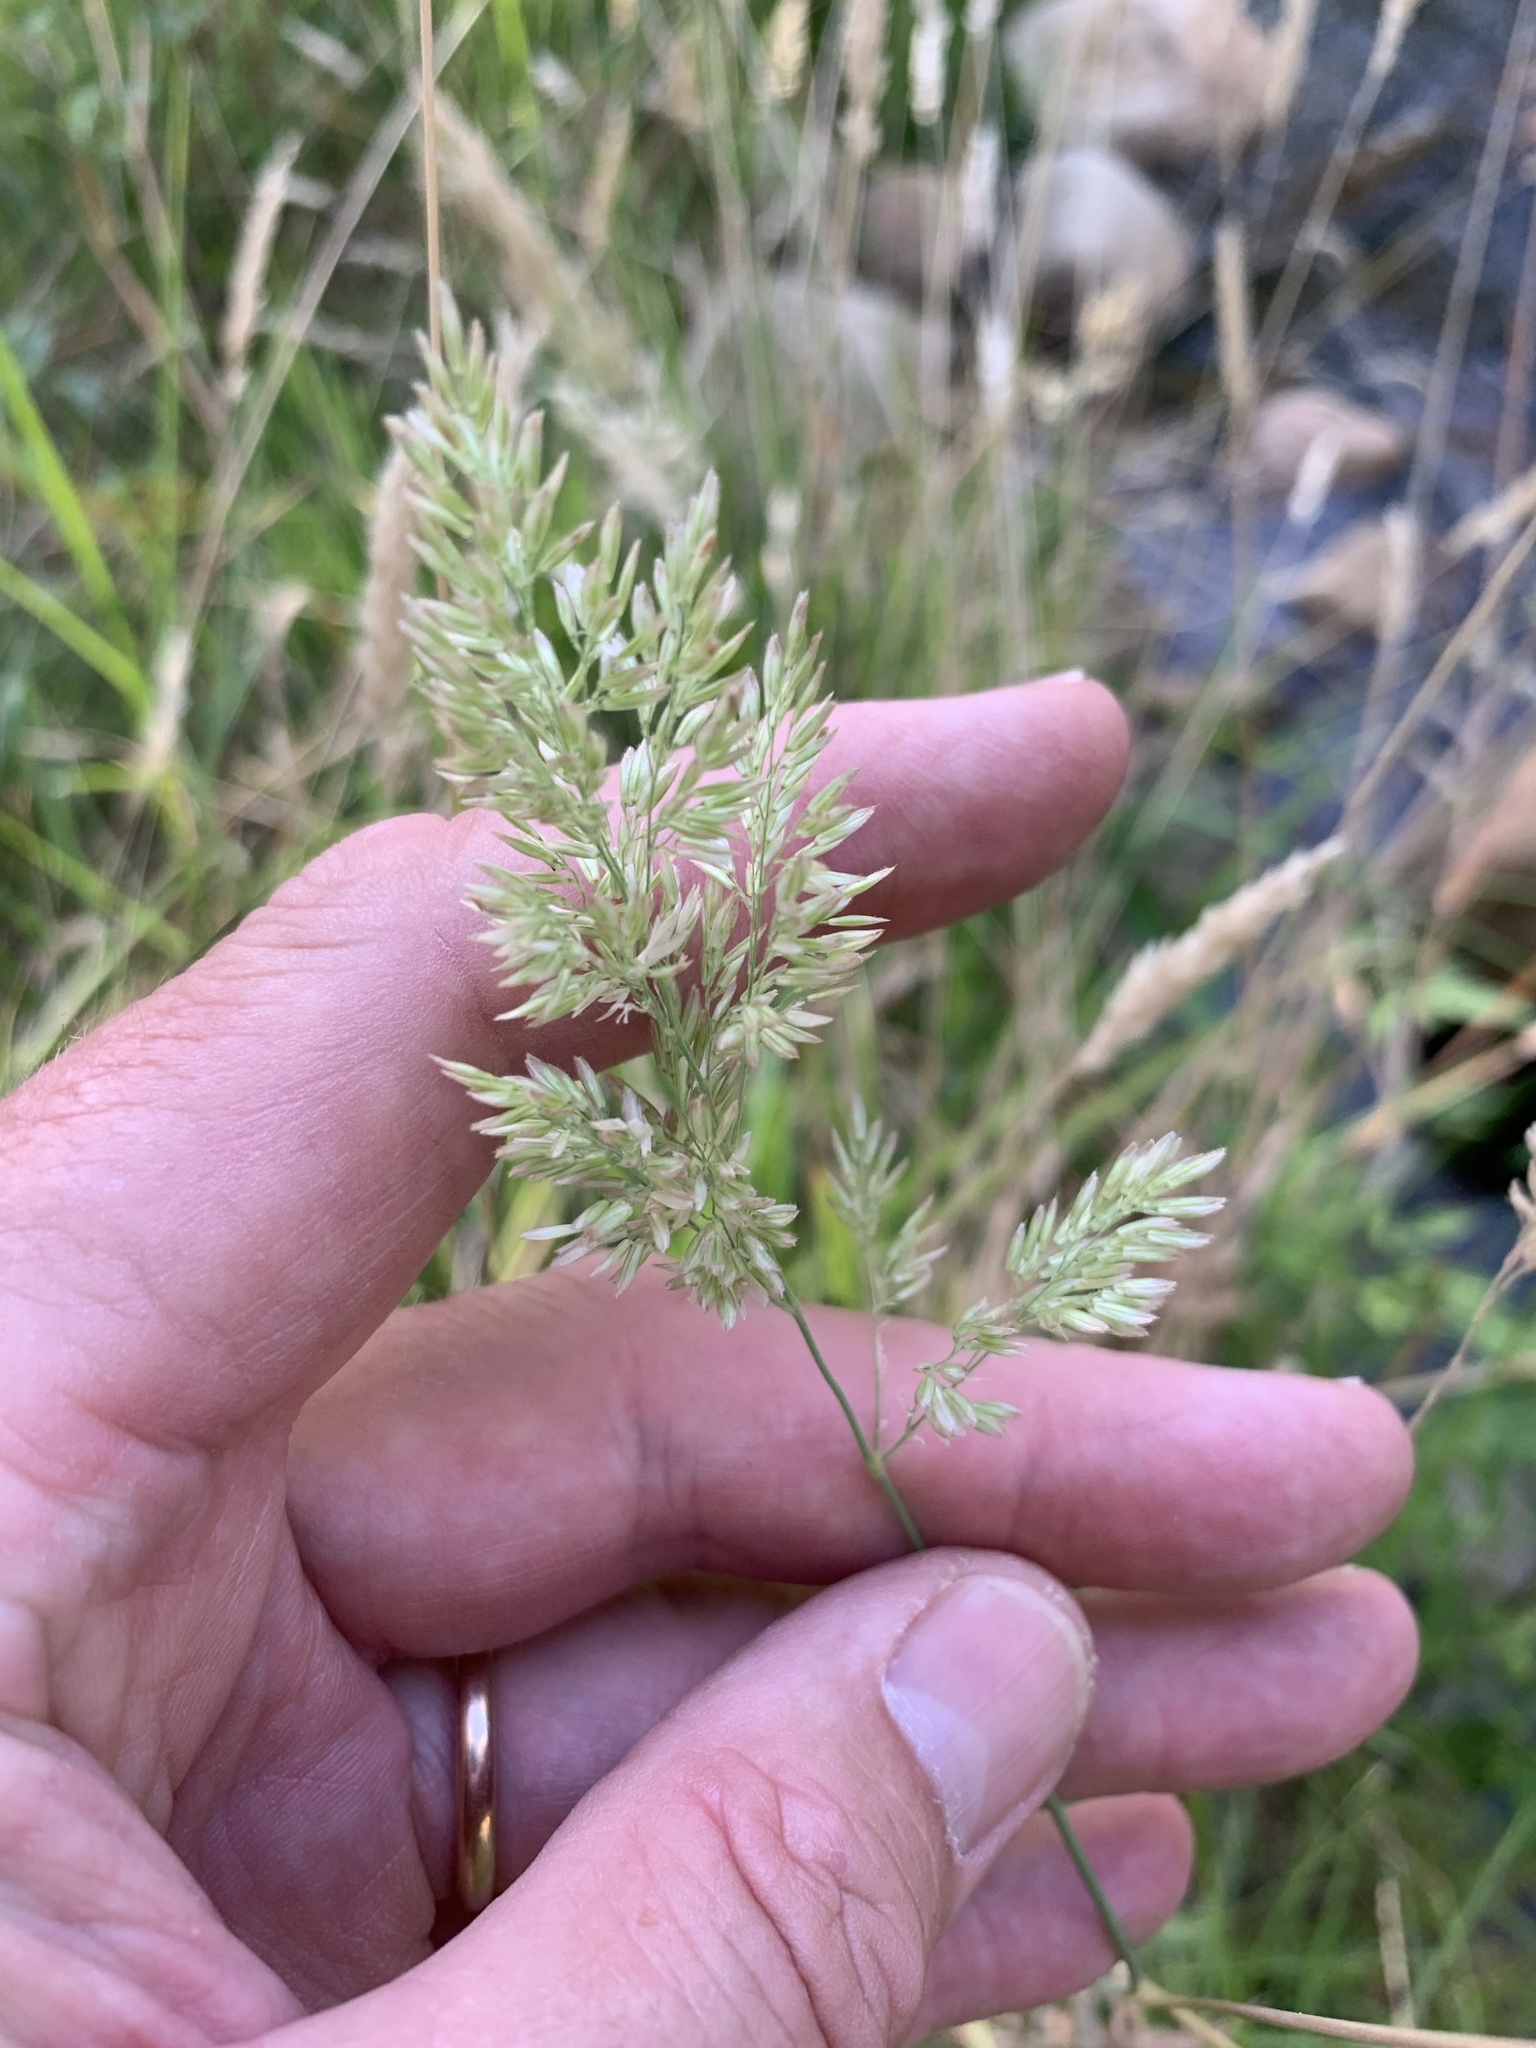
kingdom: Plantae
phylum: Tracheophyta
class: Liliopsida
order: Poales
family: Poaceae
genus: Holcus
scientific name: Holcus lanatus
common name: Yorkshire-fog
